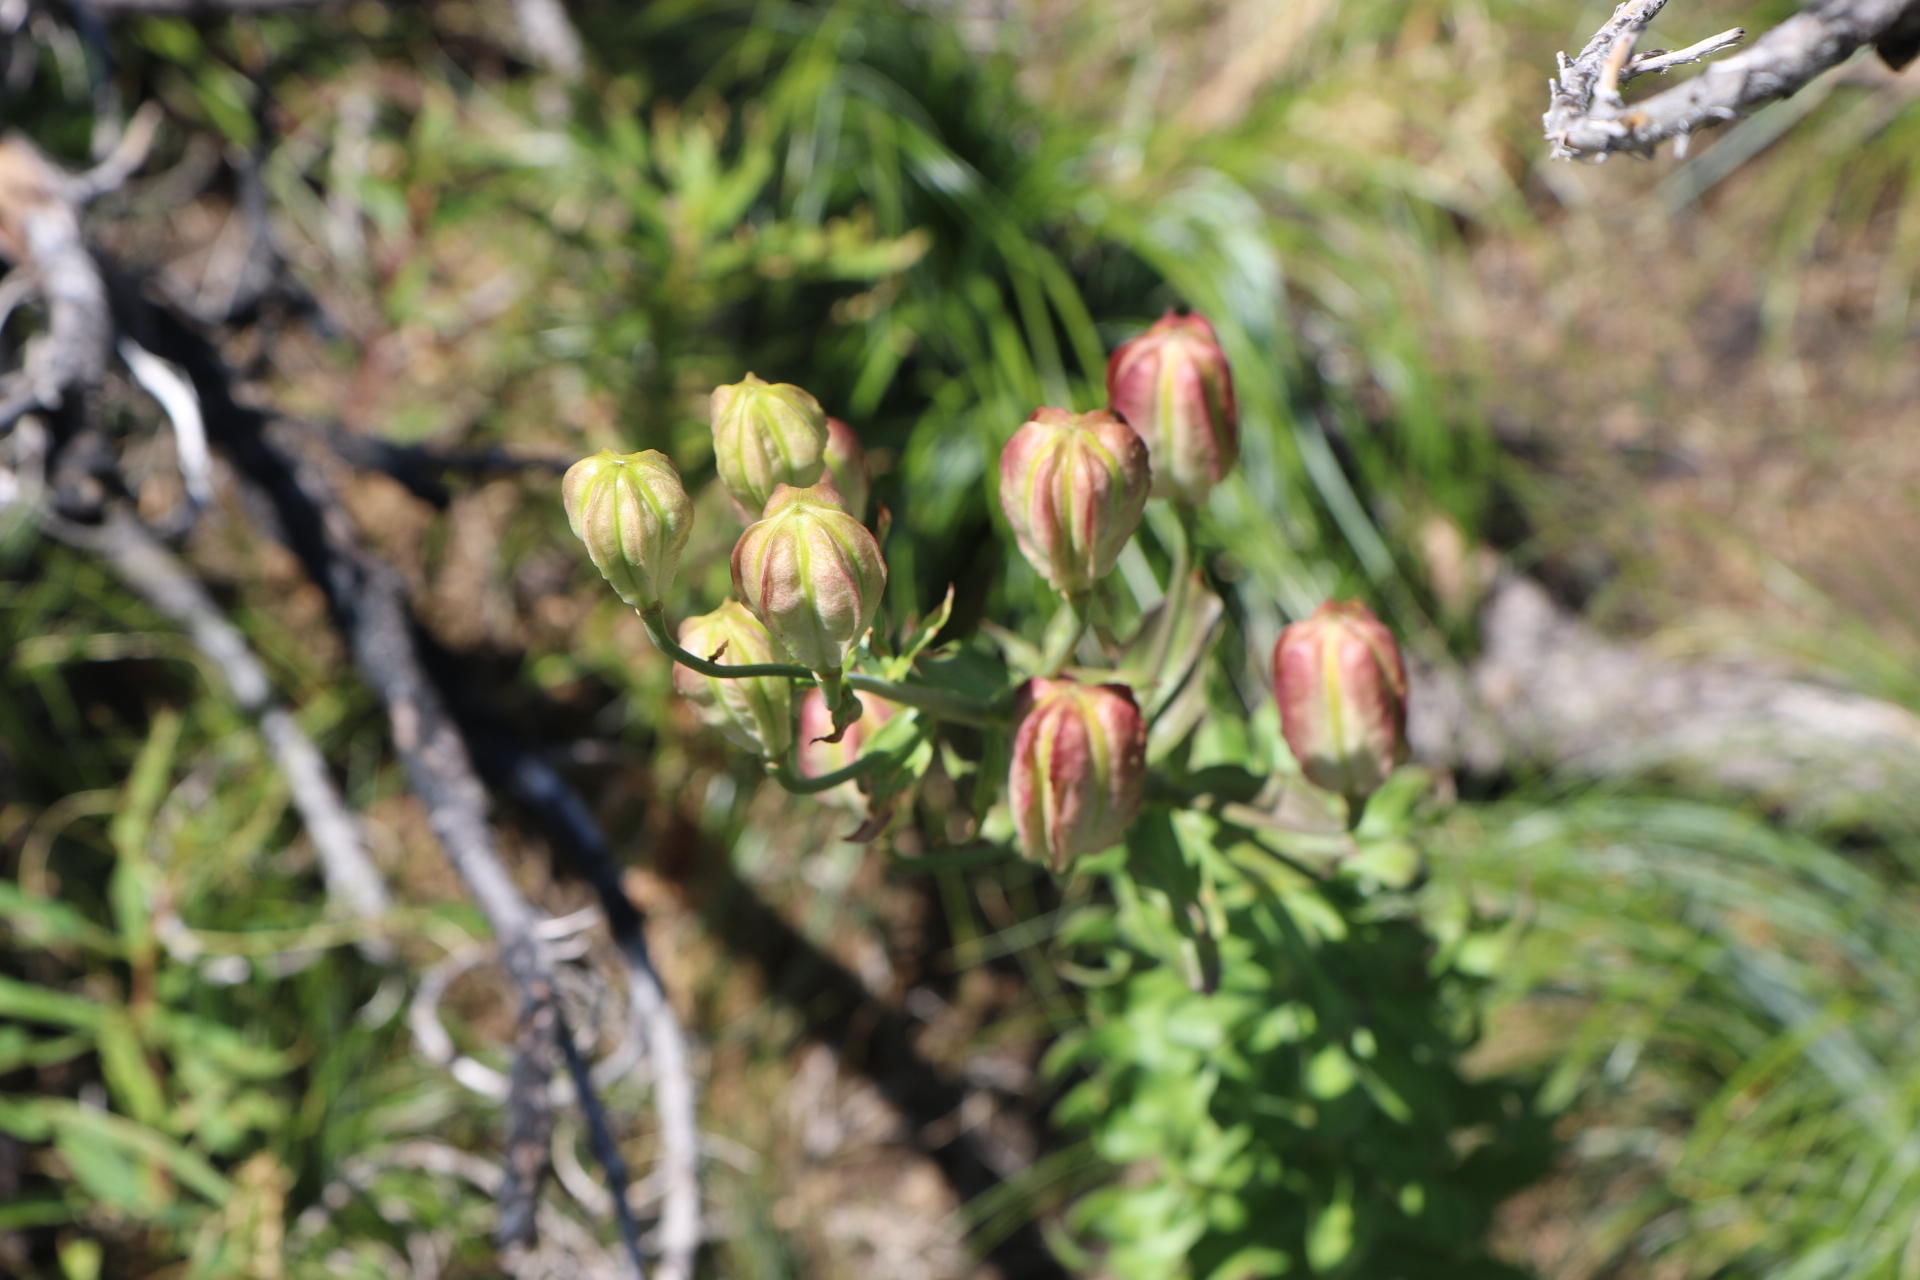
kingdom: Plantae
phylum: Tracheophyta
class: Liliopsida
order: Liliales
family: Liliaceae
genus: Lilium
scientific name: Lilium washingtonianum
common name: Washington lily
